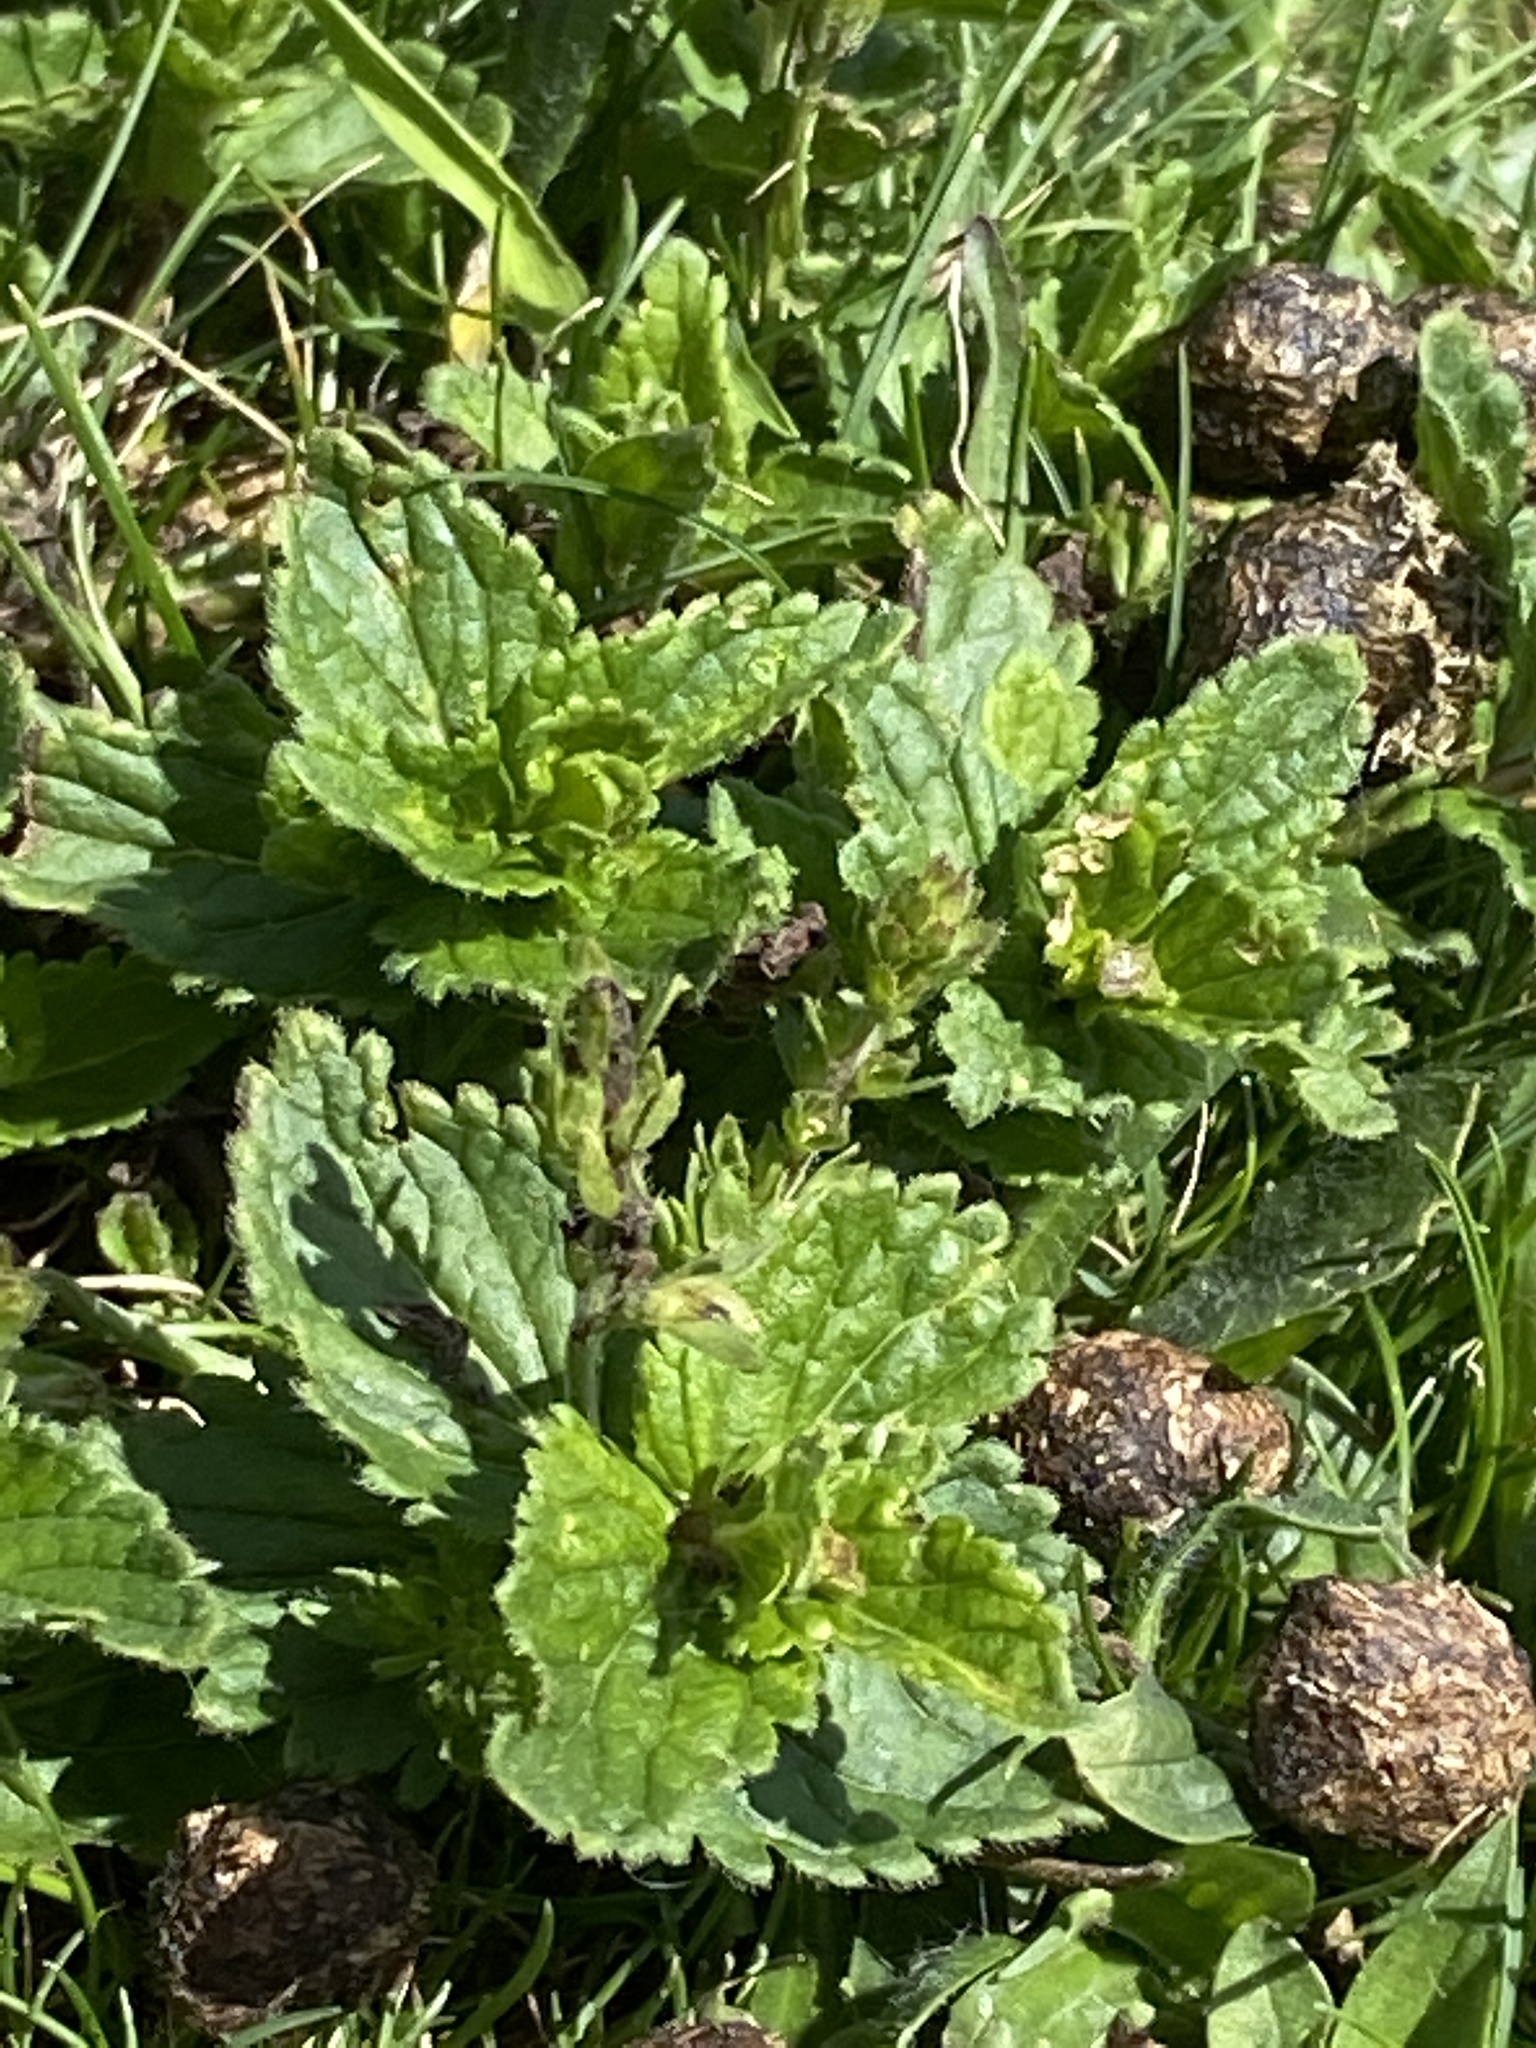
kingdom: Plantae
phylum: Tracheophyta
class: Magnoliopsida
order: Lamiales
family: Plantaginaceae
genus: Veronica
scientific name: Veronica chamaedrys
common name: Germander speedwell
